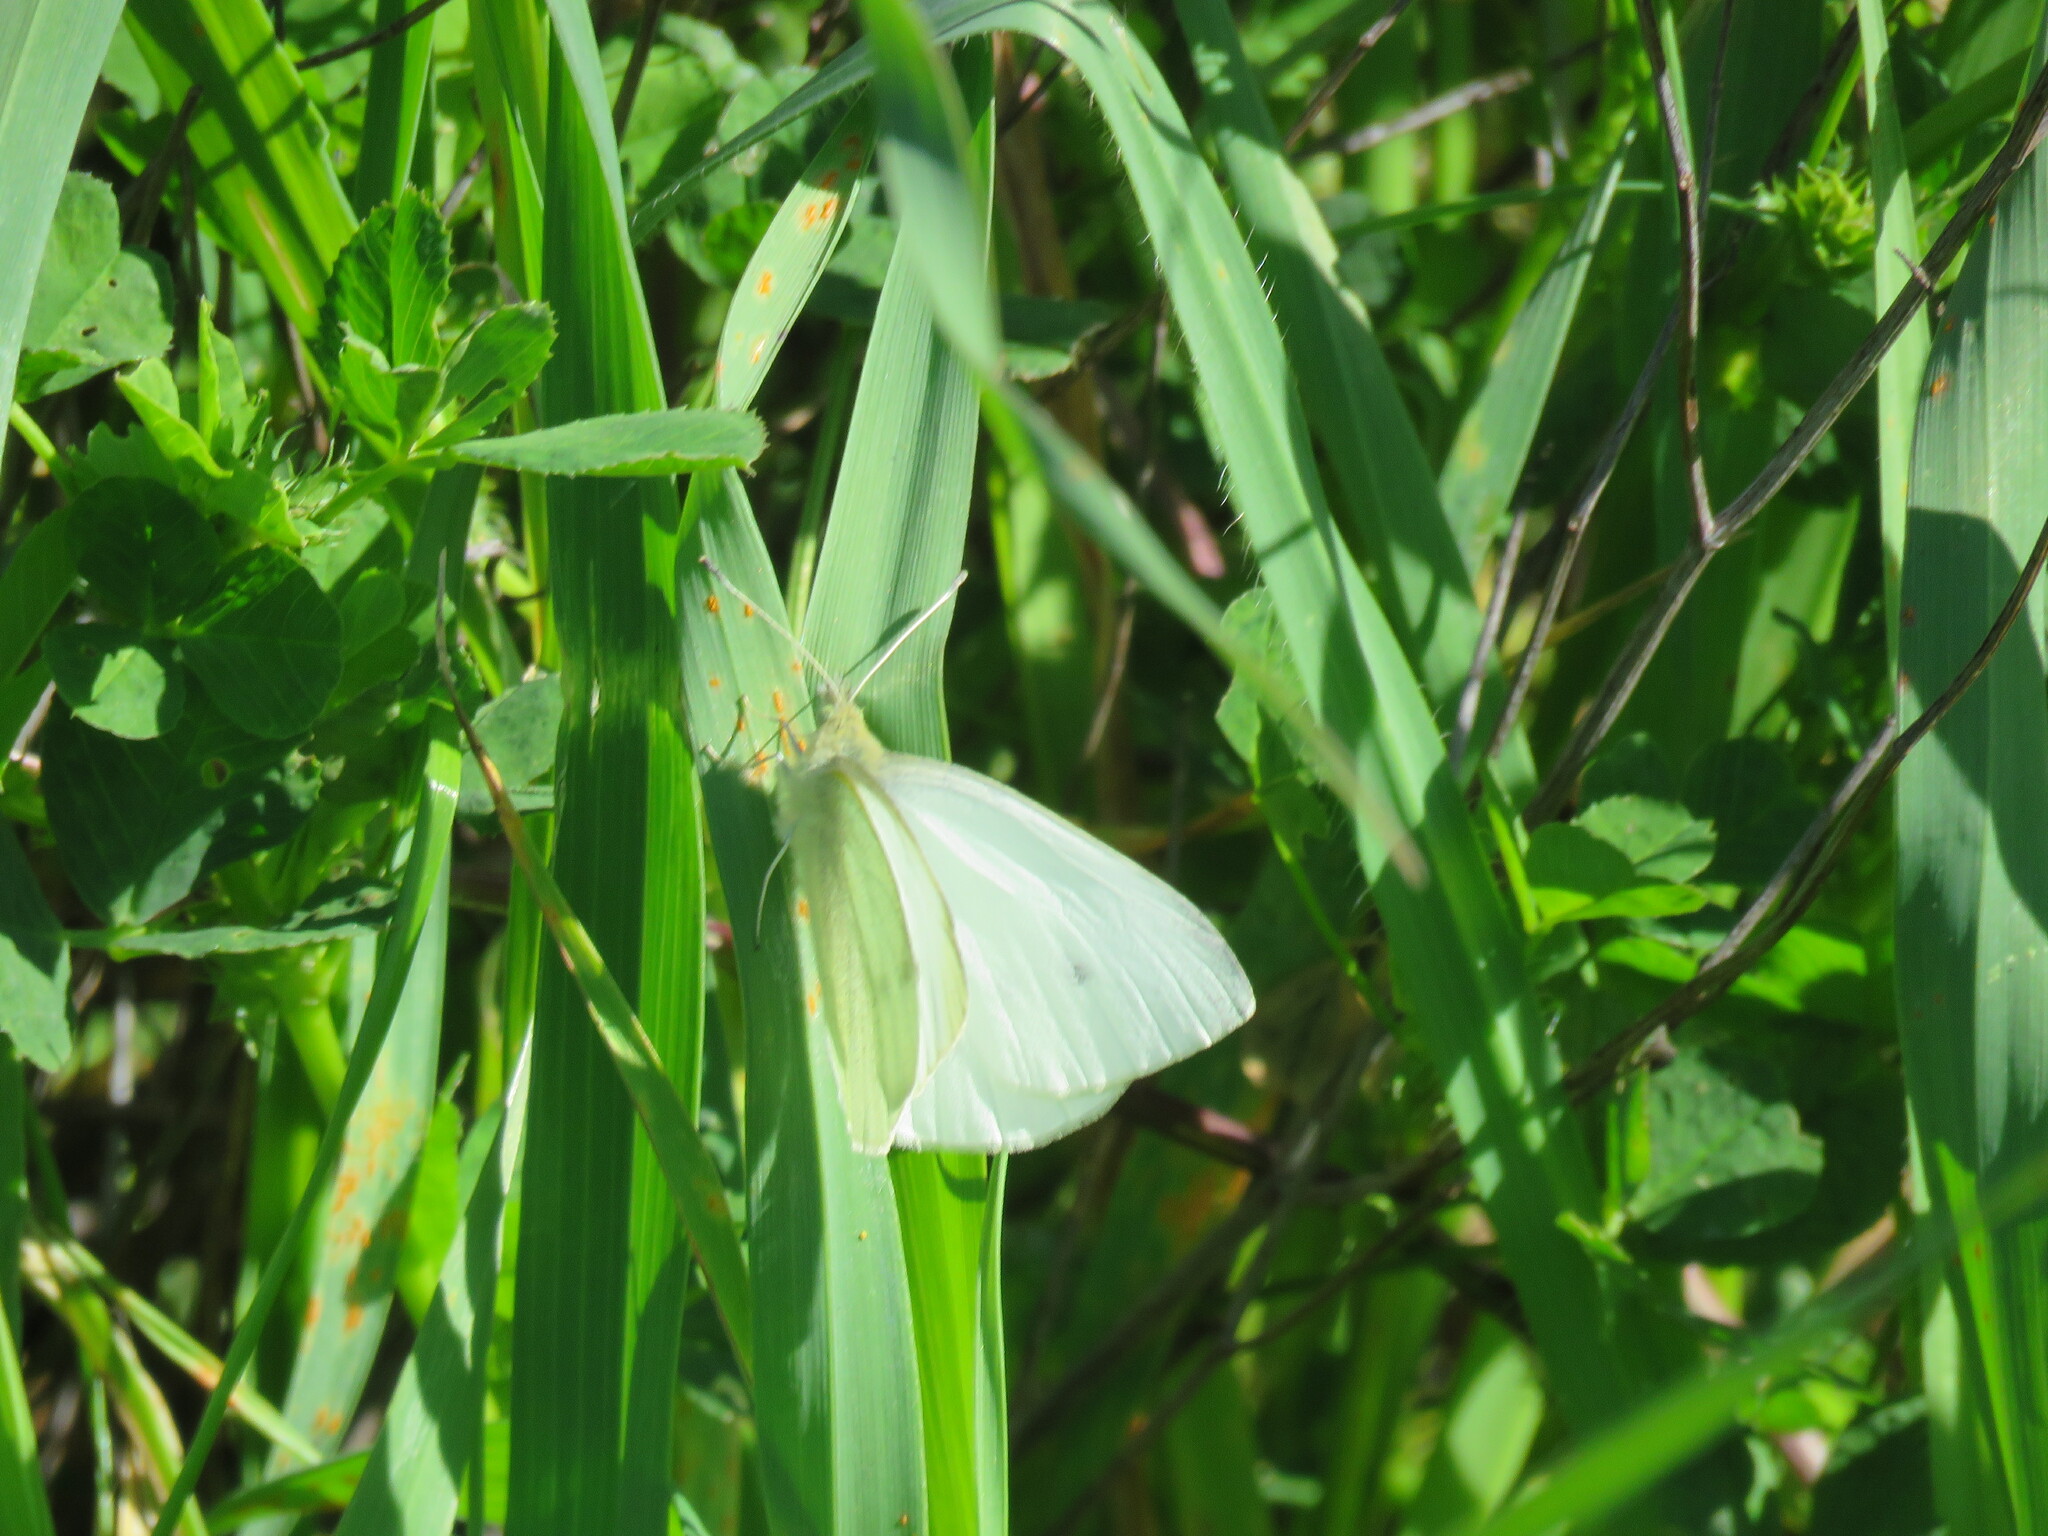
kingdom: Animalia
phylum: Arthropoda
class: Insecta
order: Lepidoptera
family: Pieridae
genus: Pieris
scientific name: Pieris rapae
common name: Small white
